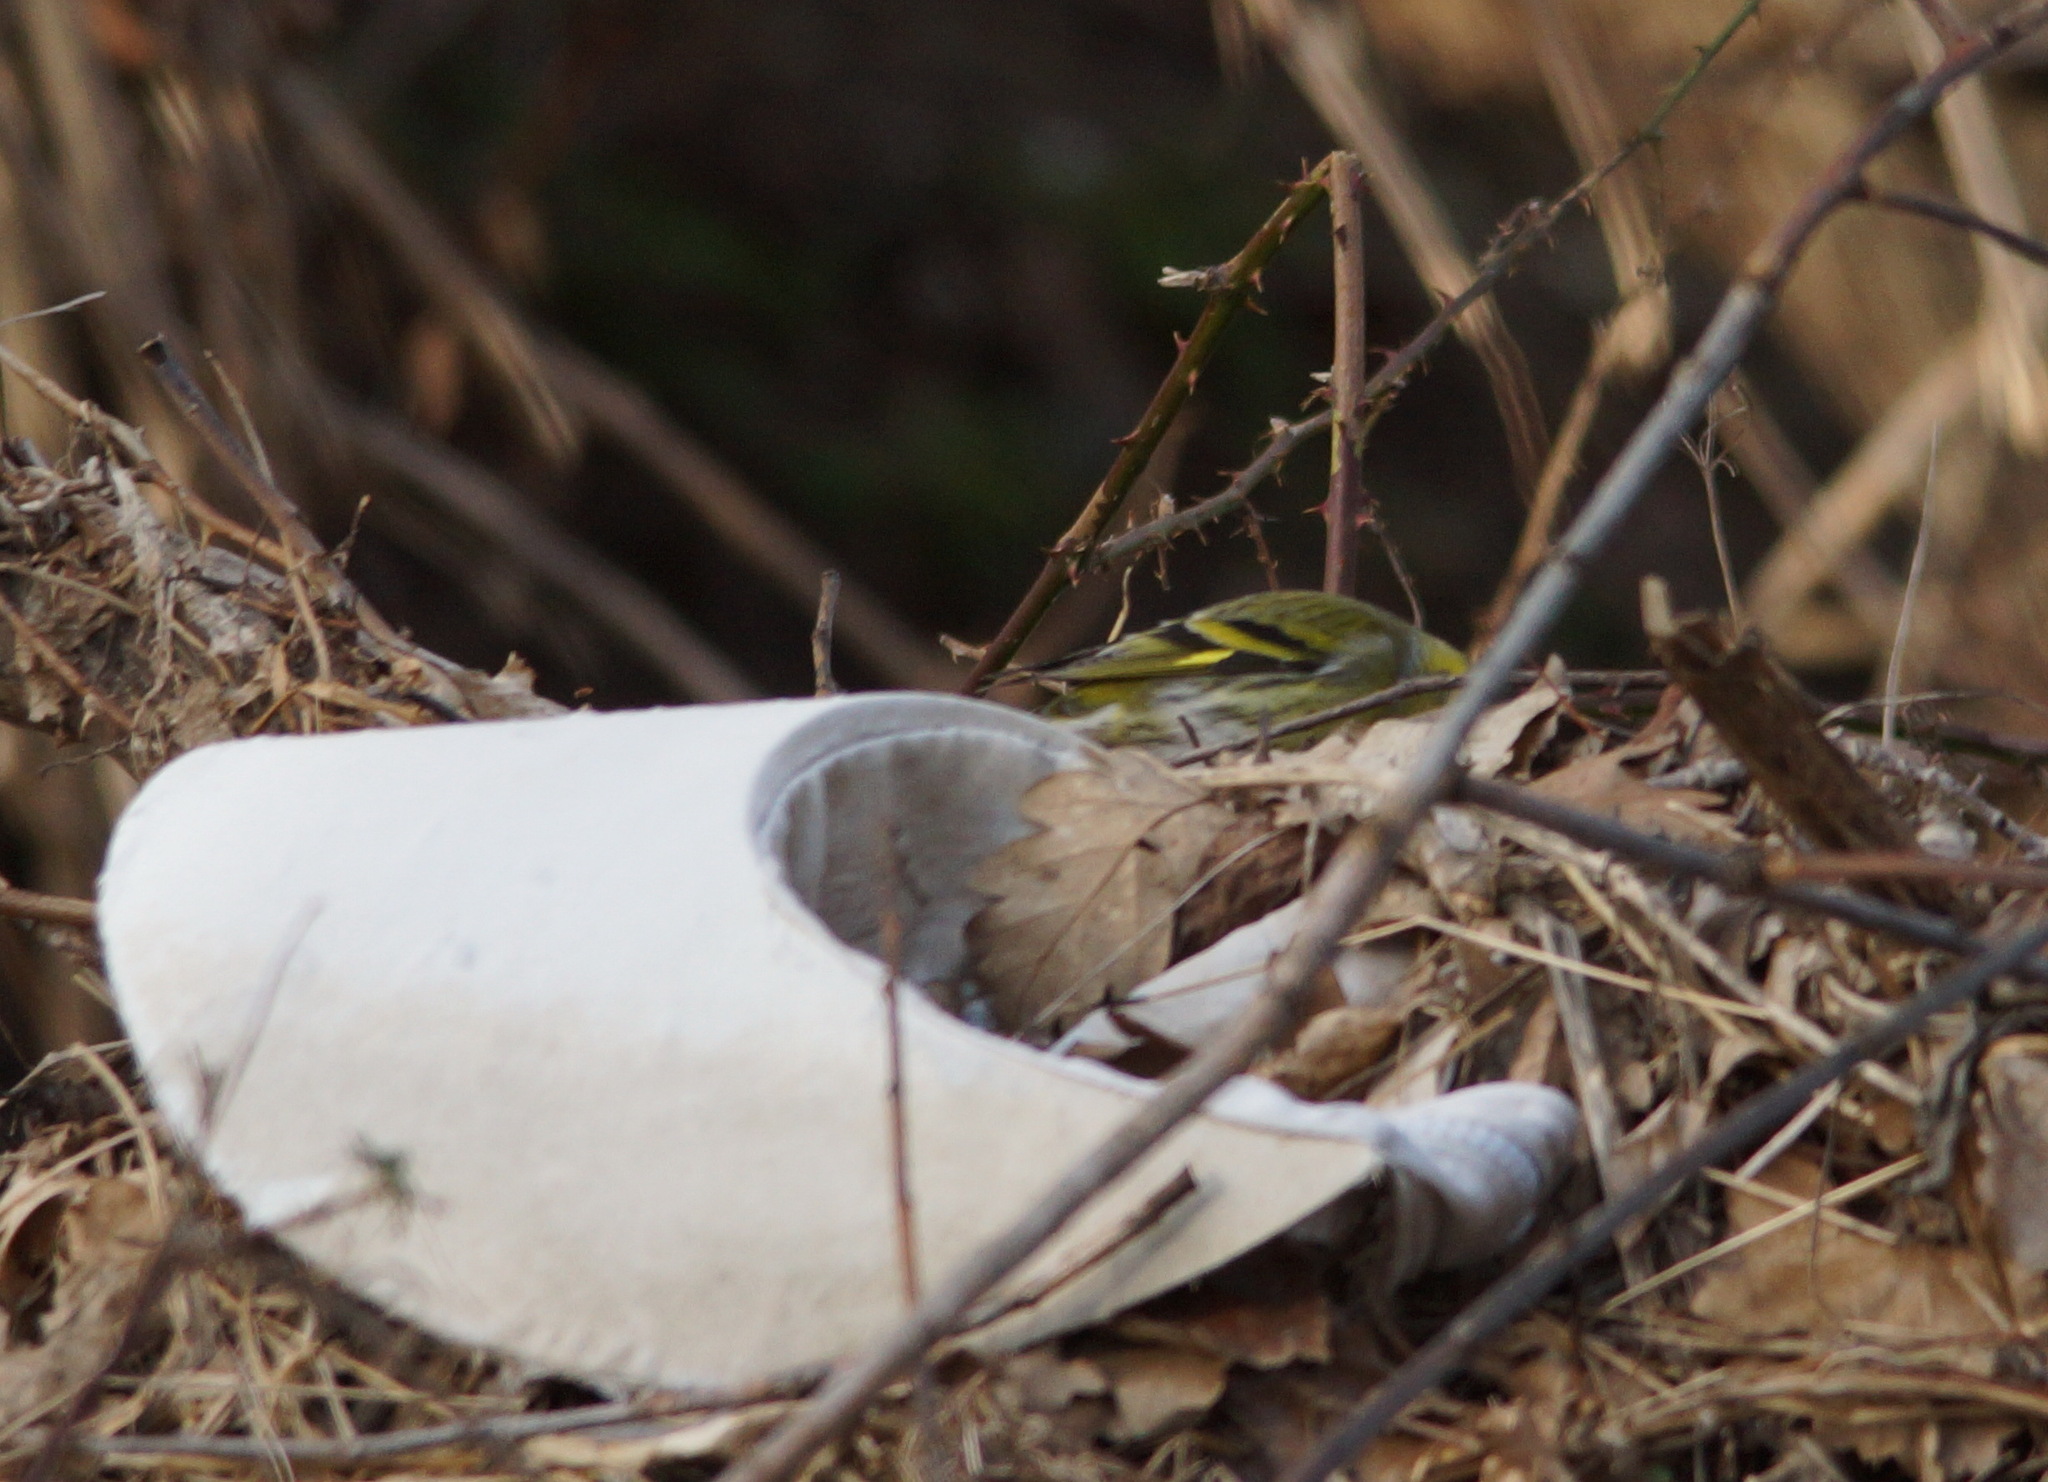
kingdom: Animalia
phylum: Chordata
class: Aves
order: Passeriformes
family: Fringillidae
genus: Spinus
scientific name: Spinus spinus
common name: Eurasian siskin
